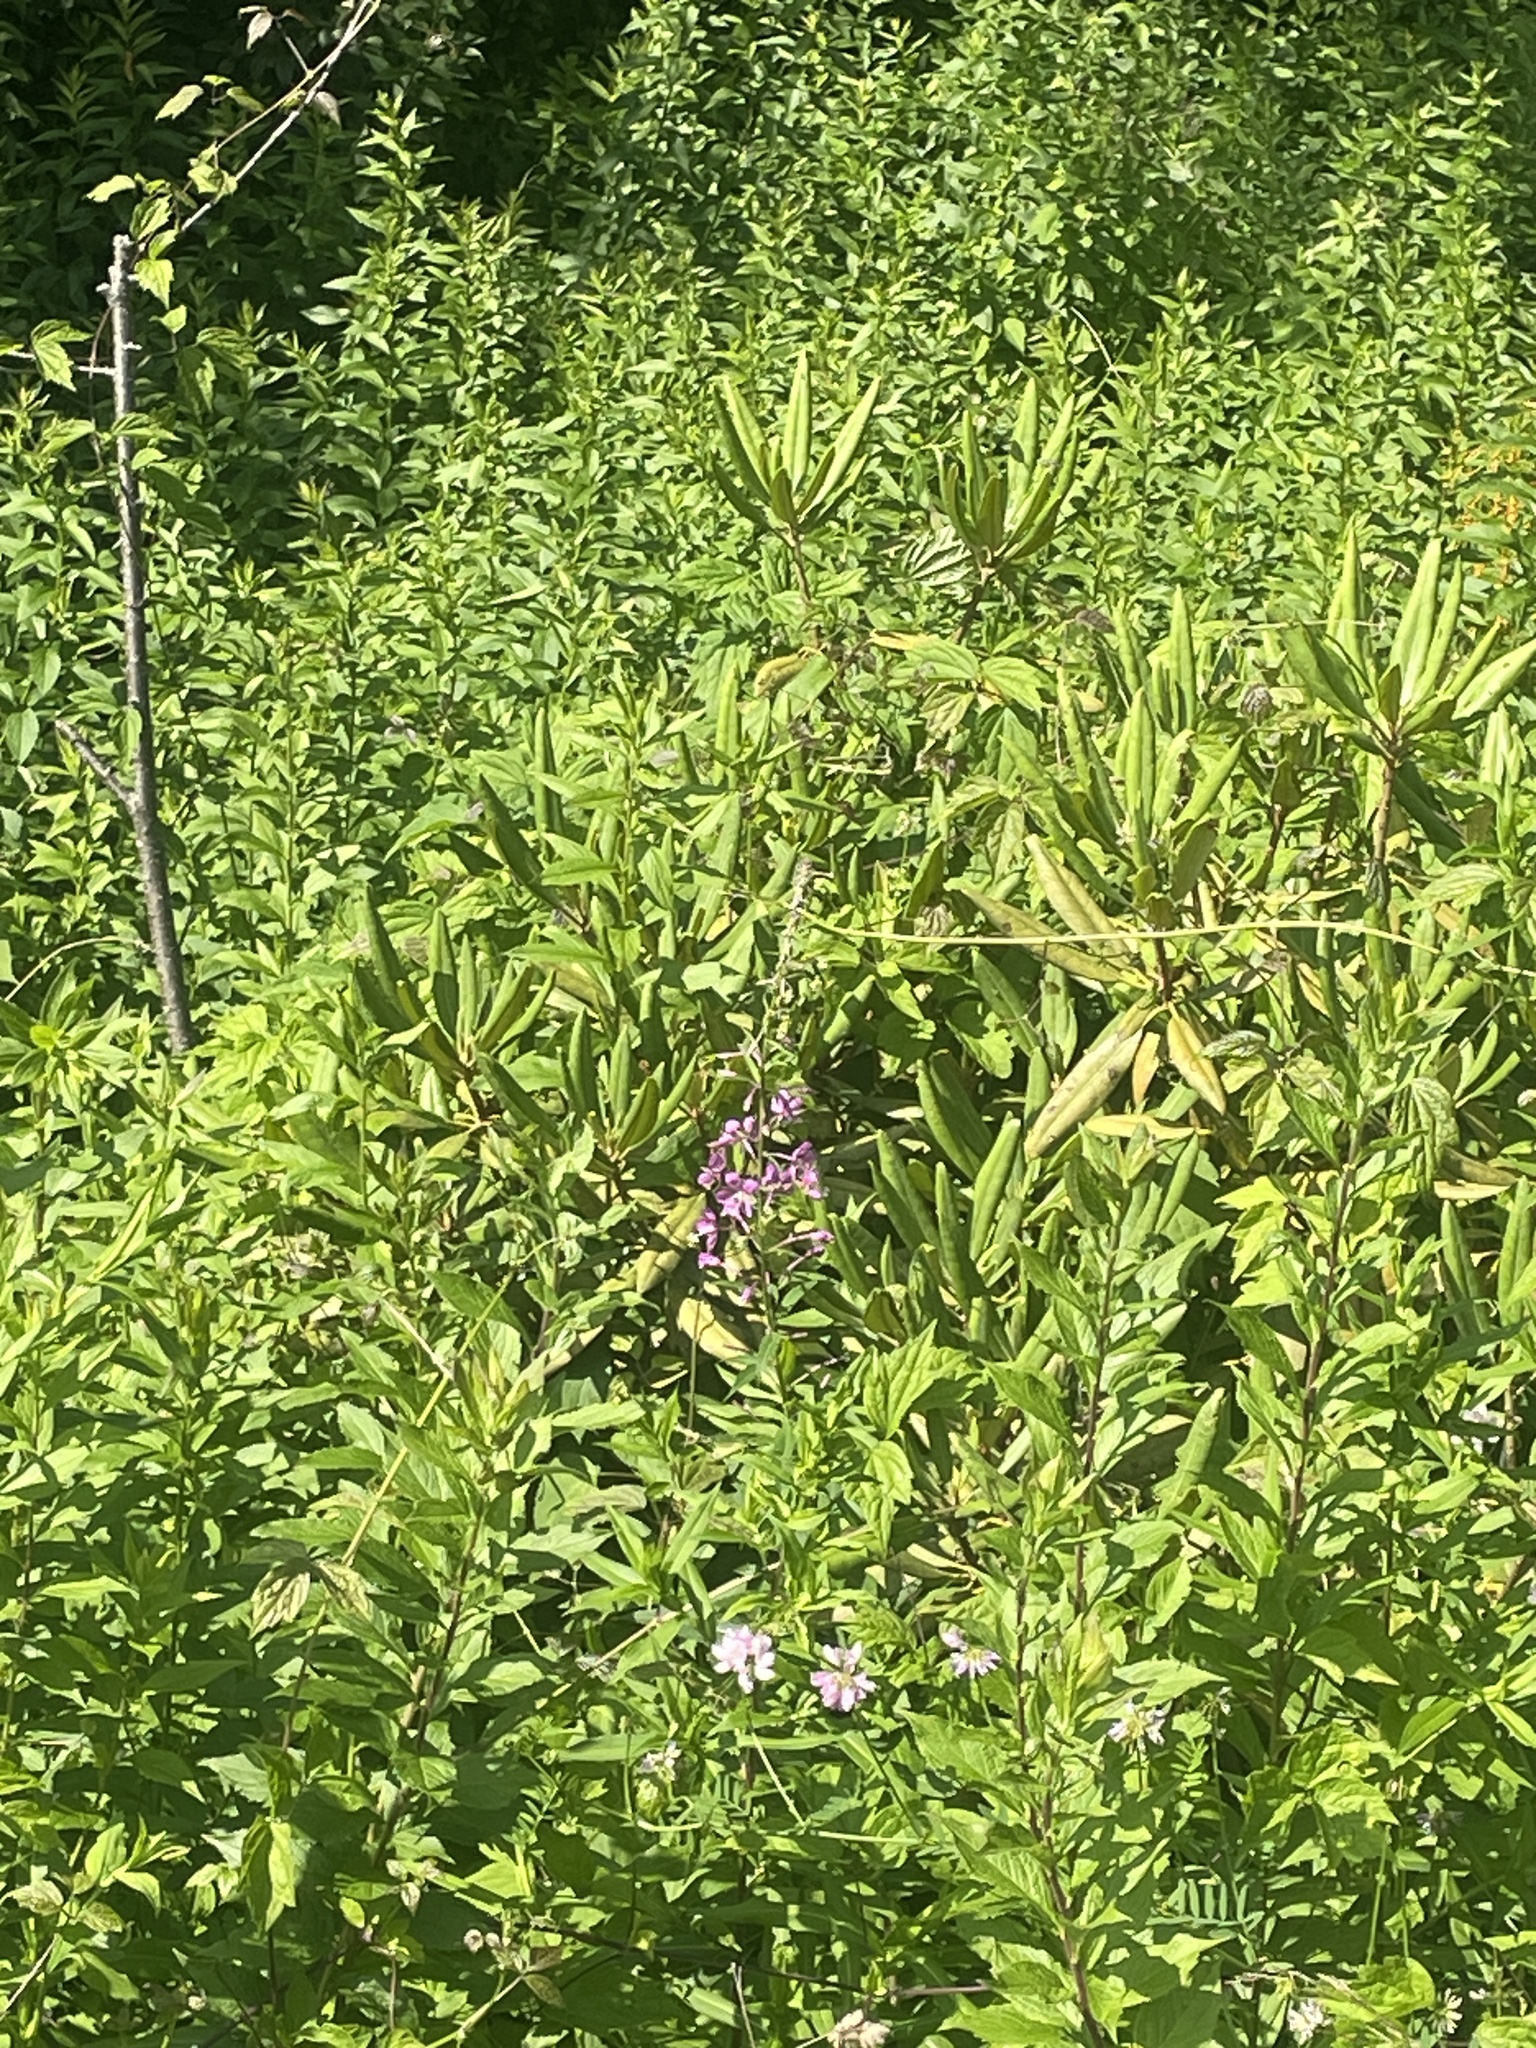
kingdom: Plantae
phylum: Tracheophyta
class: Magnoliopsida
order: Myrtales
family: Onagraceae
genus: Chamaenerion
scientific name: Chamaenerion angustifolium
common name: Fireweed
